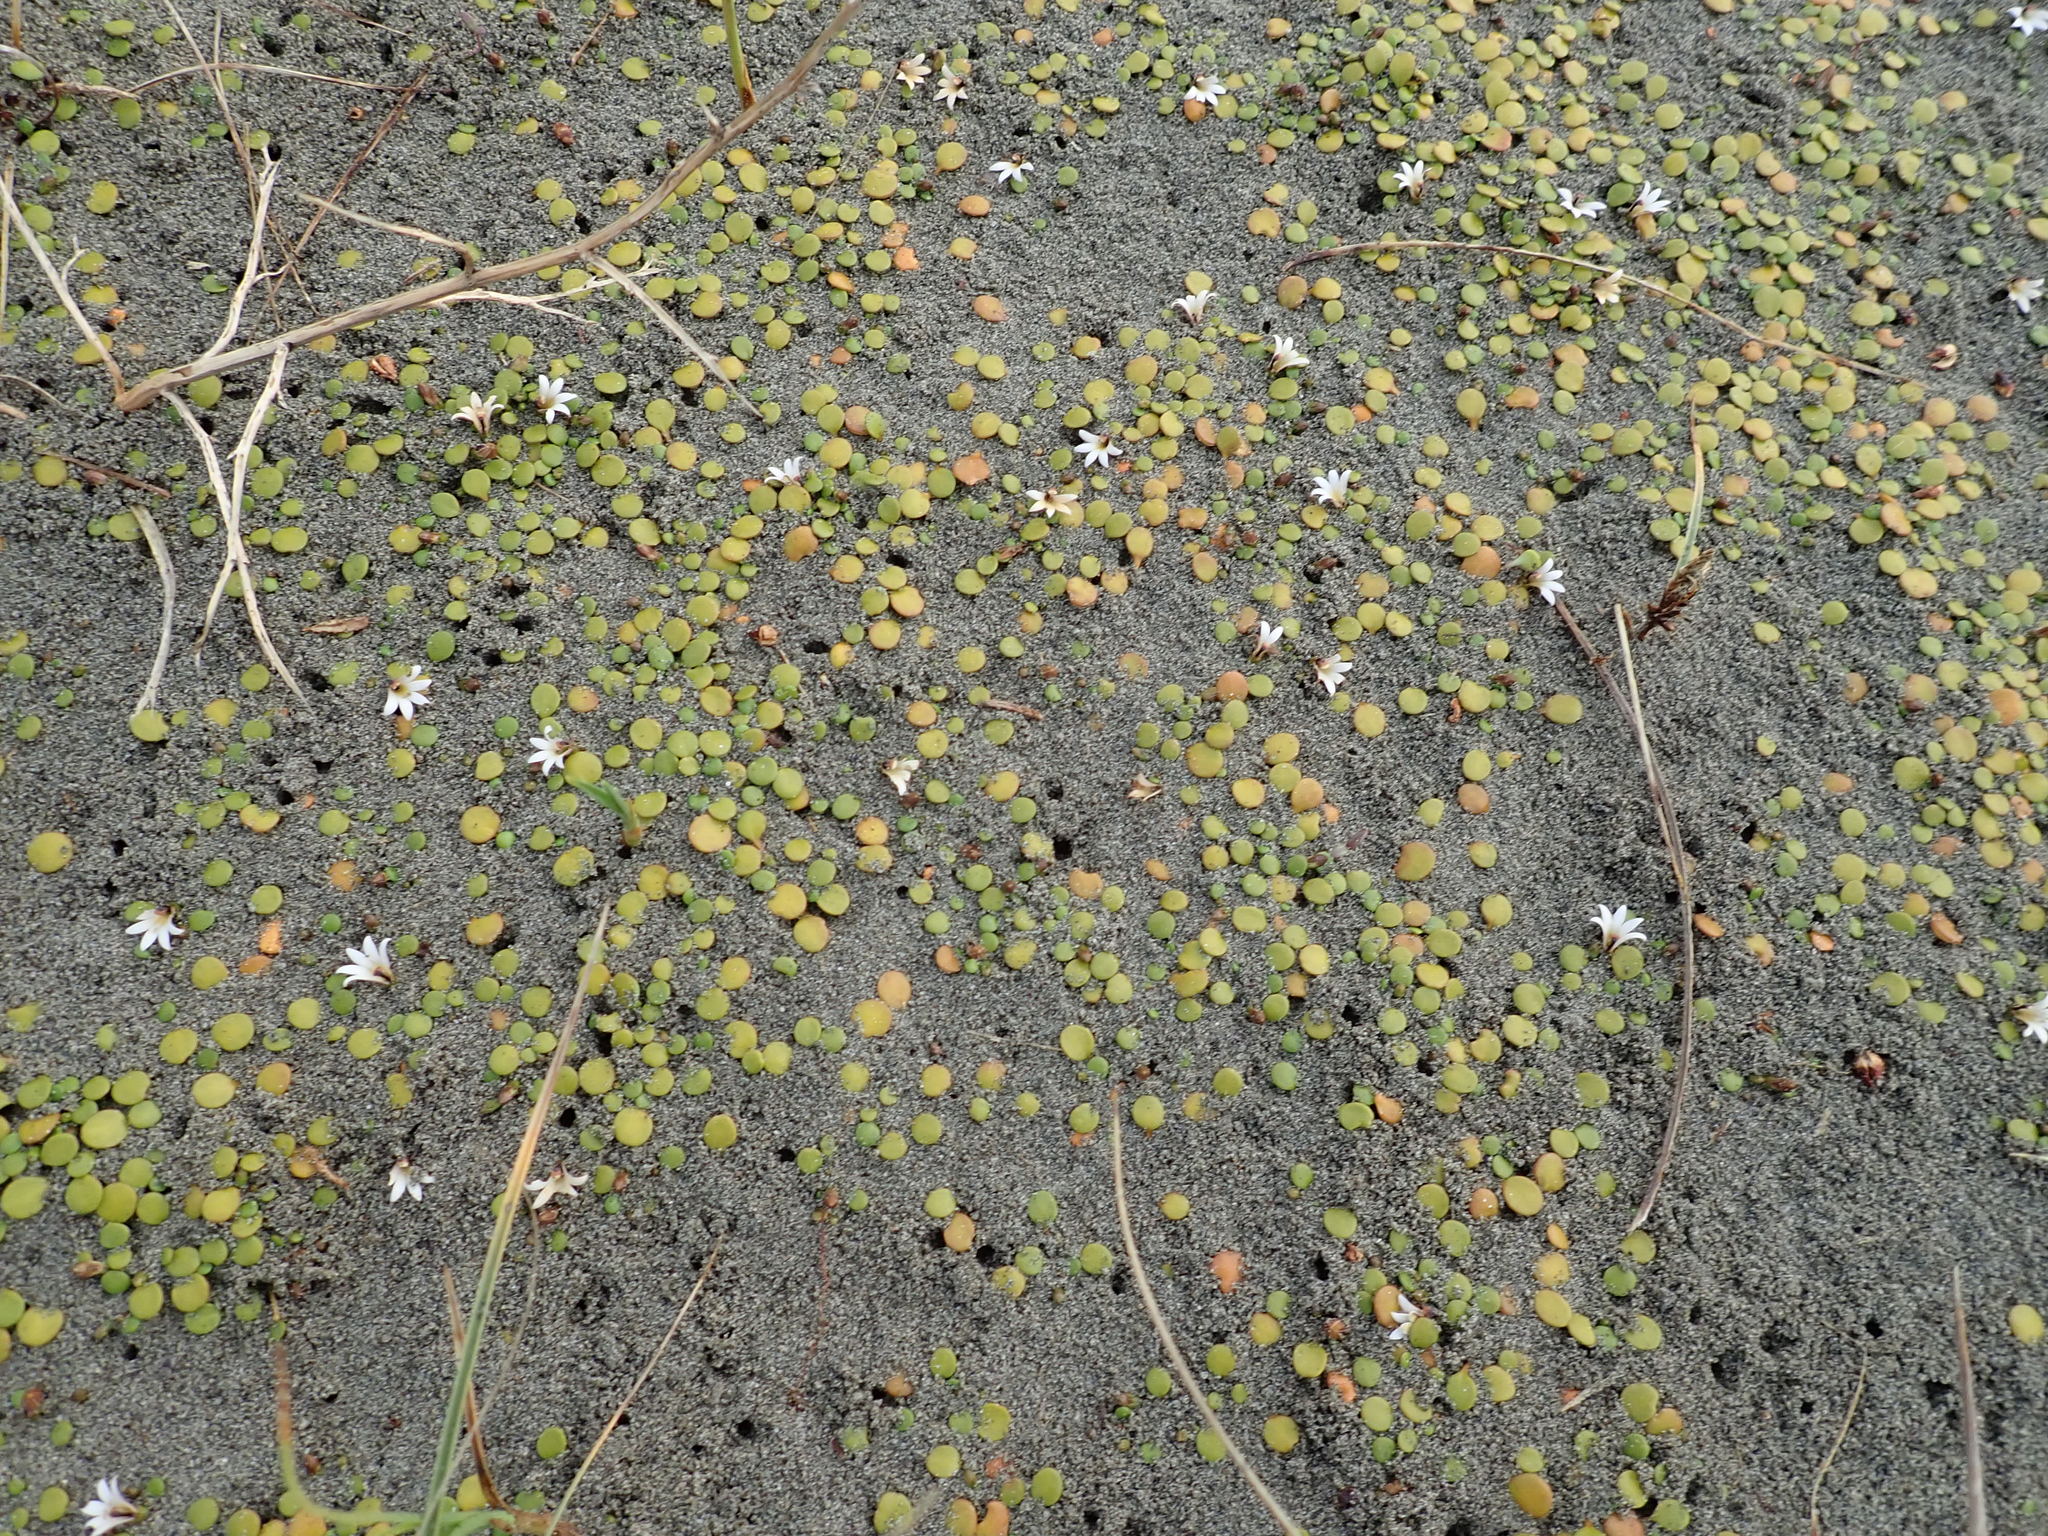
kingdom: Plantae
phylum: Tracheophyta
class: Magnoliopsida
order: Asterales
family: Goodeniaceae
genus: Goodenia
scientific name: Goodenia heenanii
